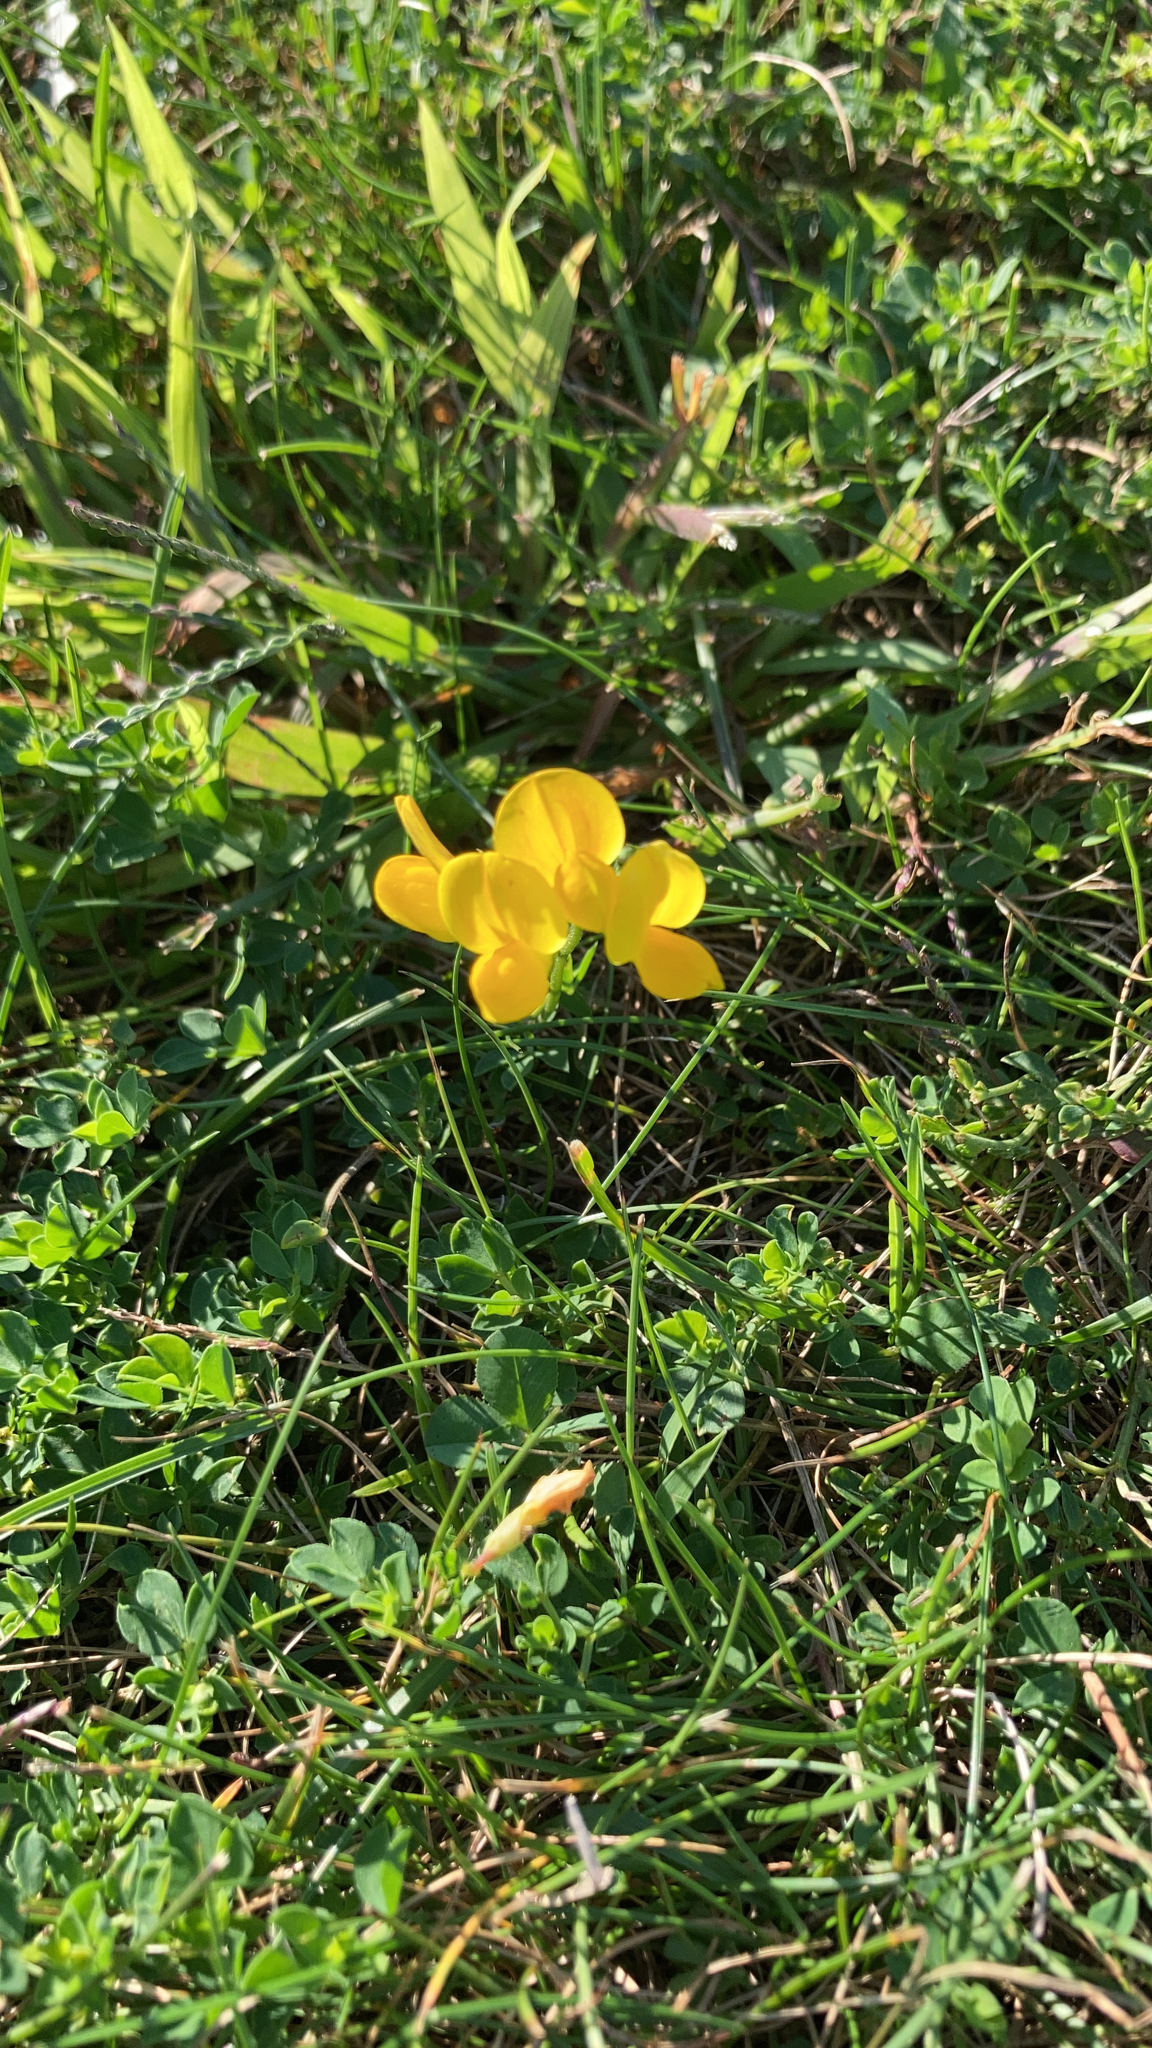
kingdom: Plantae
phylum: Tracheophyta
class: Magnoliopsida
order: Fabales
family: Fabaceae
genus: Lotus
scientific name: Lotus corniculatus
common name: Common bird's-foot-trefoil
